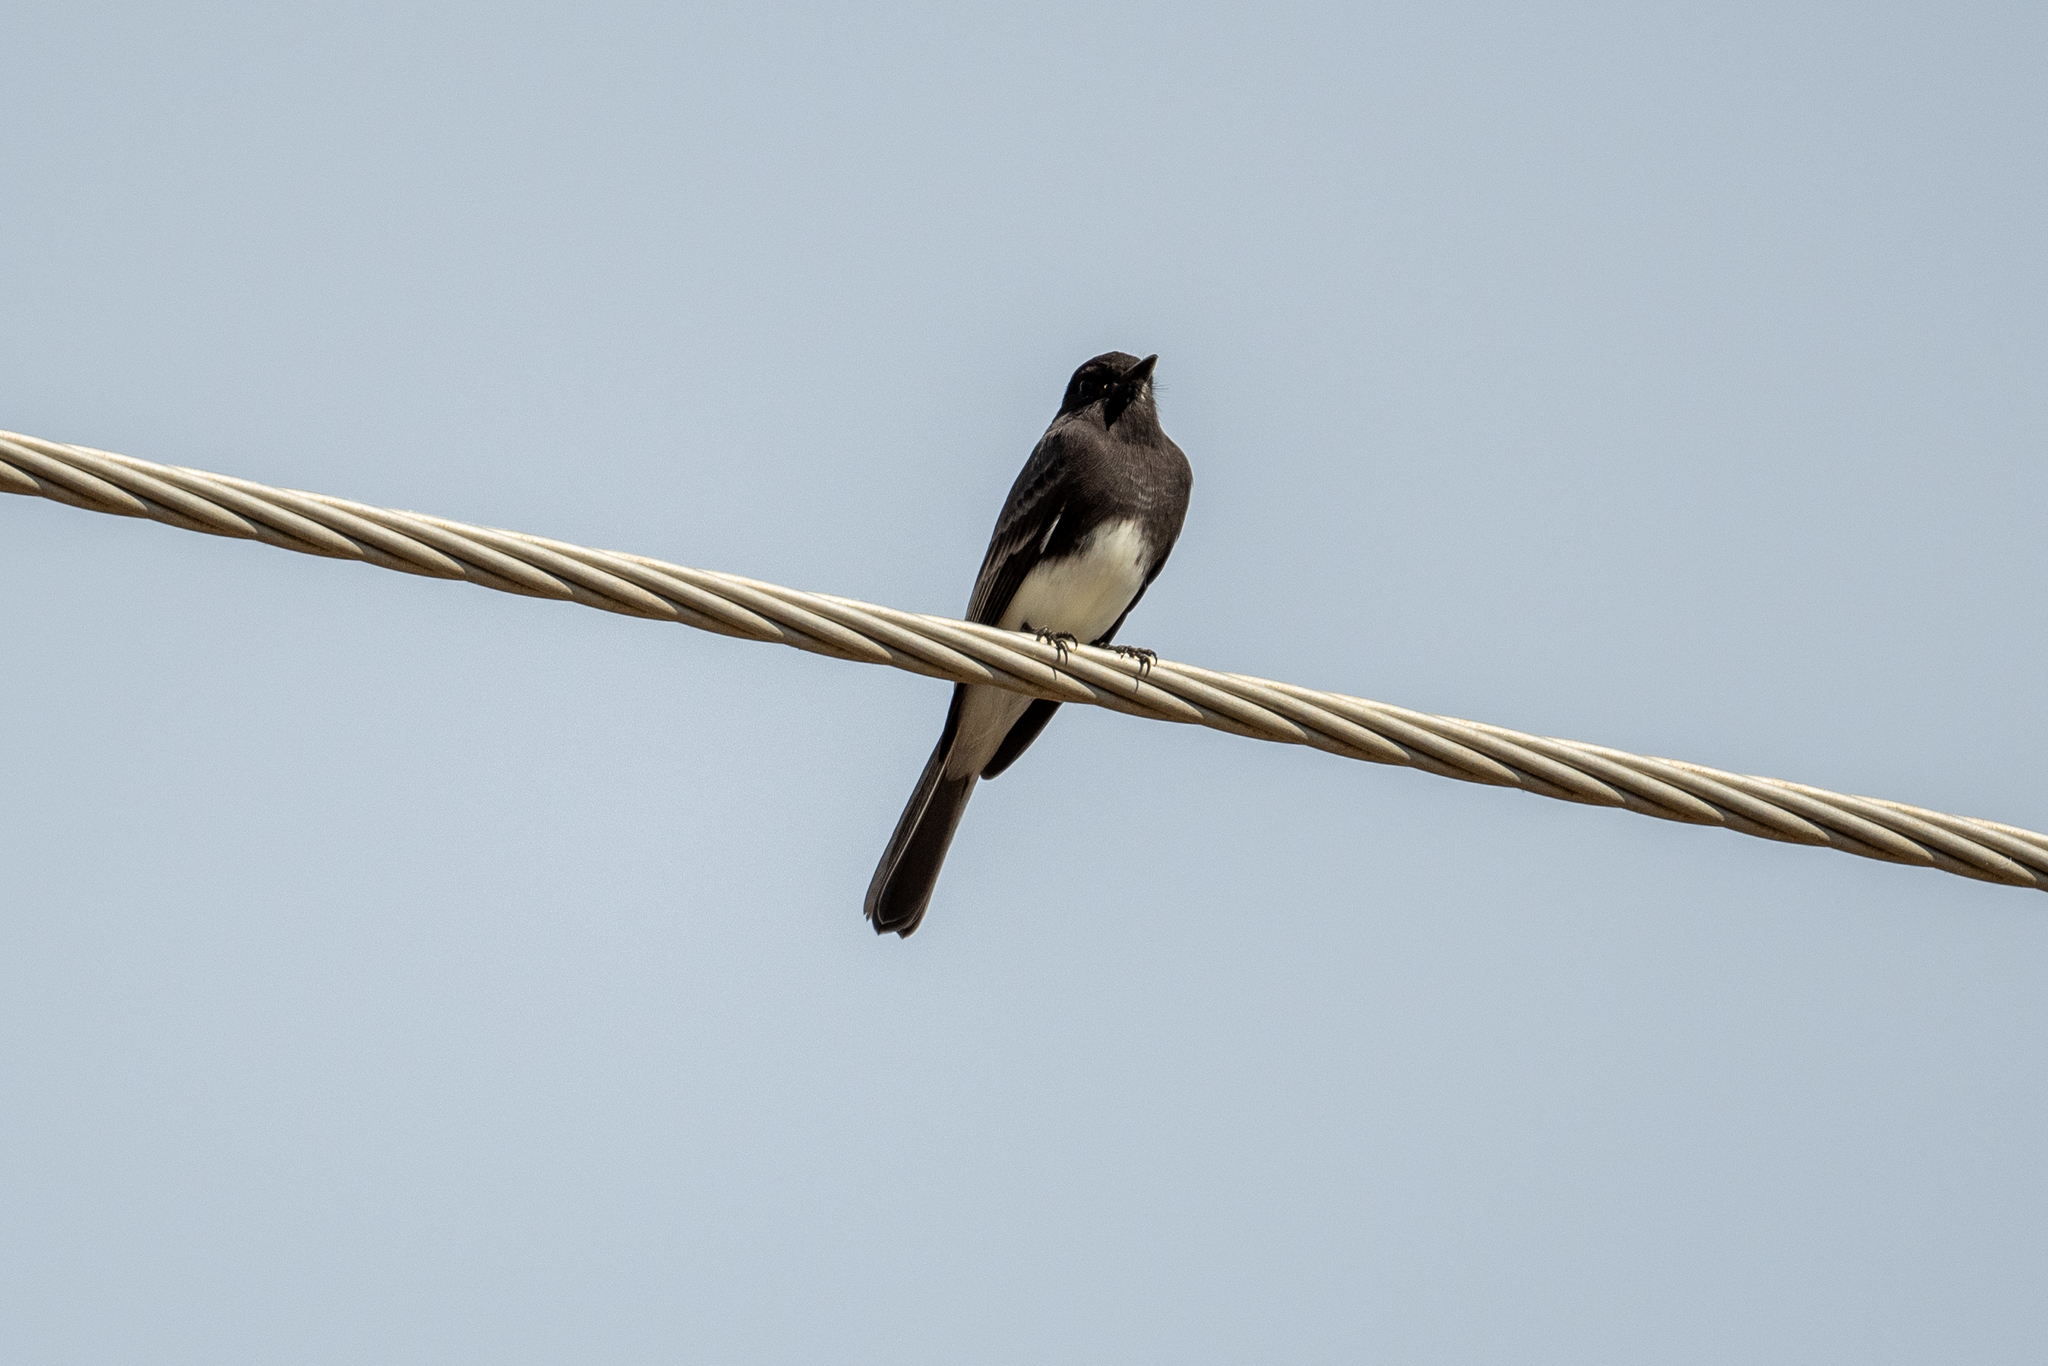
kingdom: Animalia
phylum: Chordata
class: Aves
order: Passeriformes
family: Tyrannidae
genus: Sayornis
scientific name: Sayornis nigricans
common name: Black phoebe
